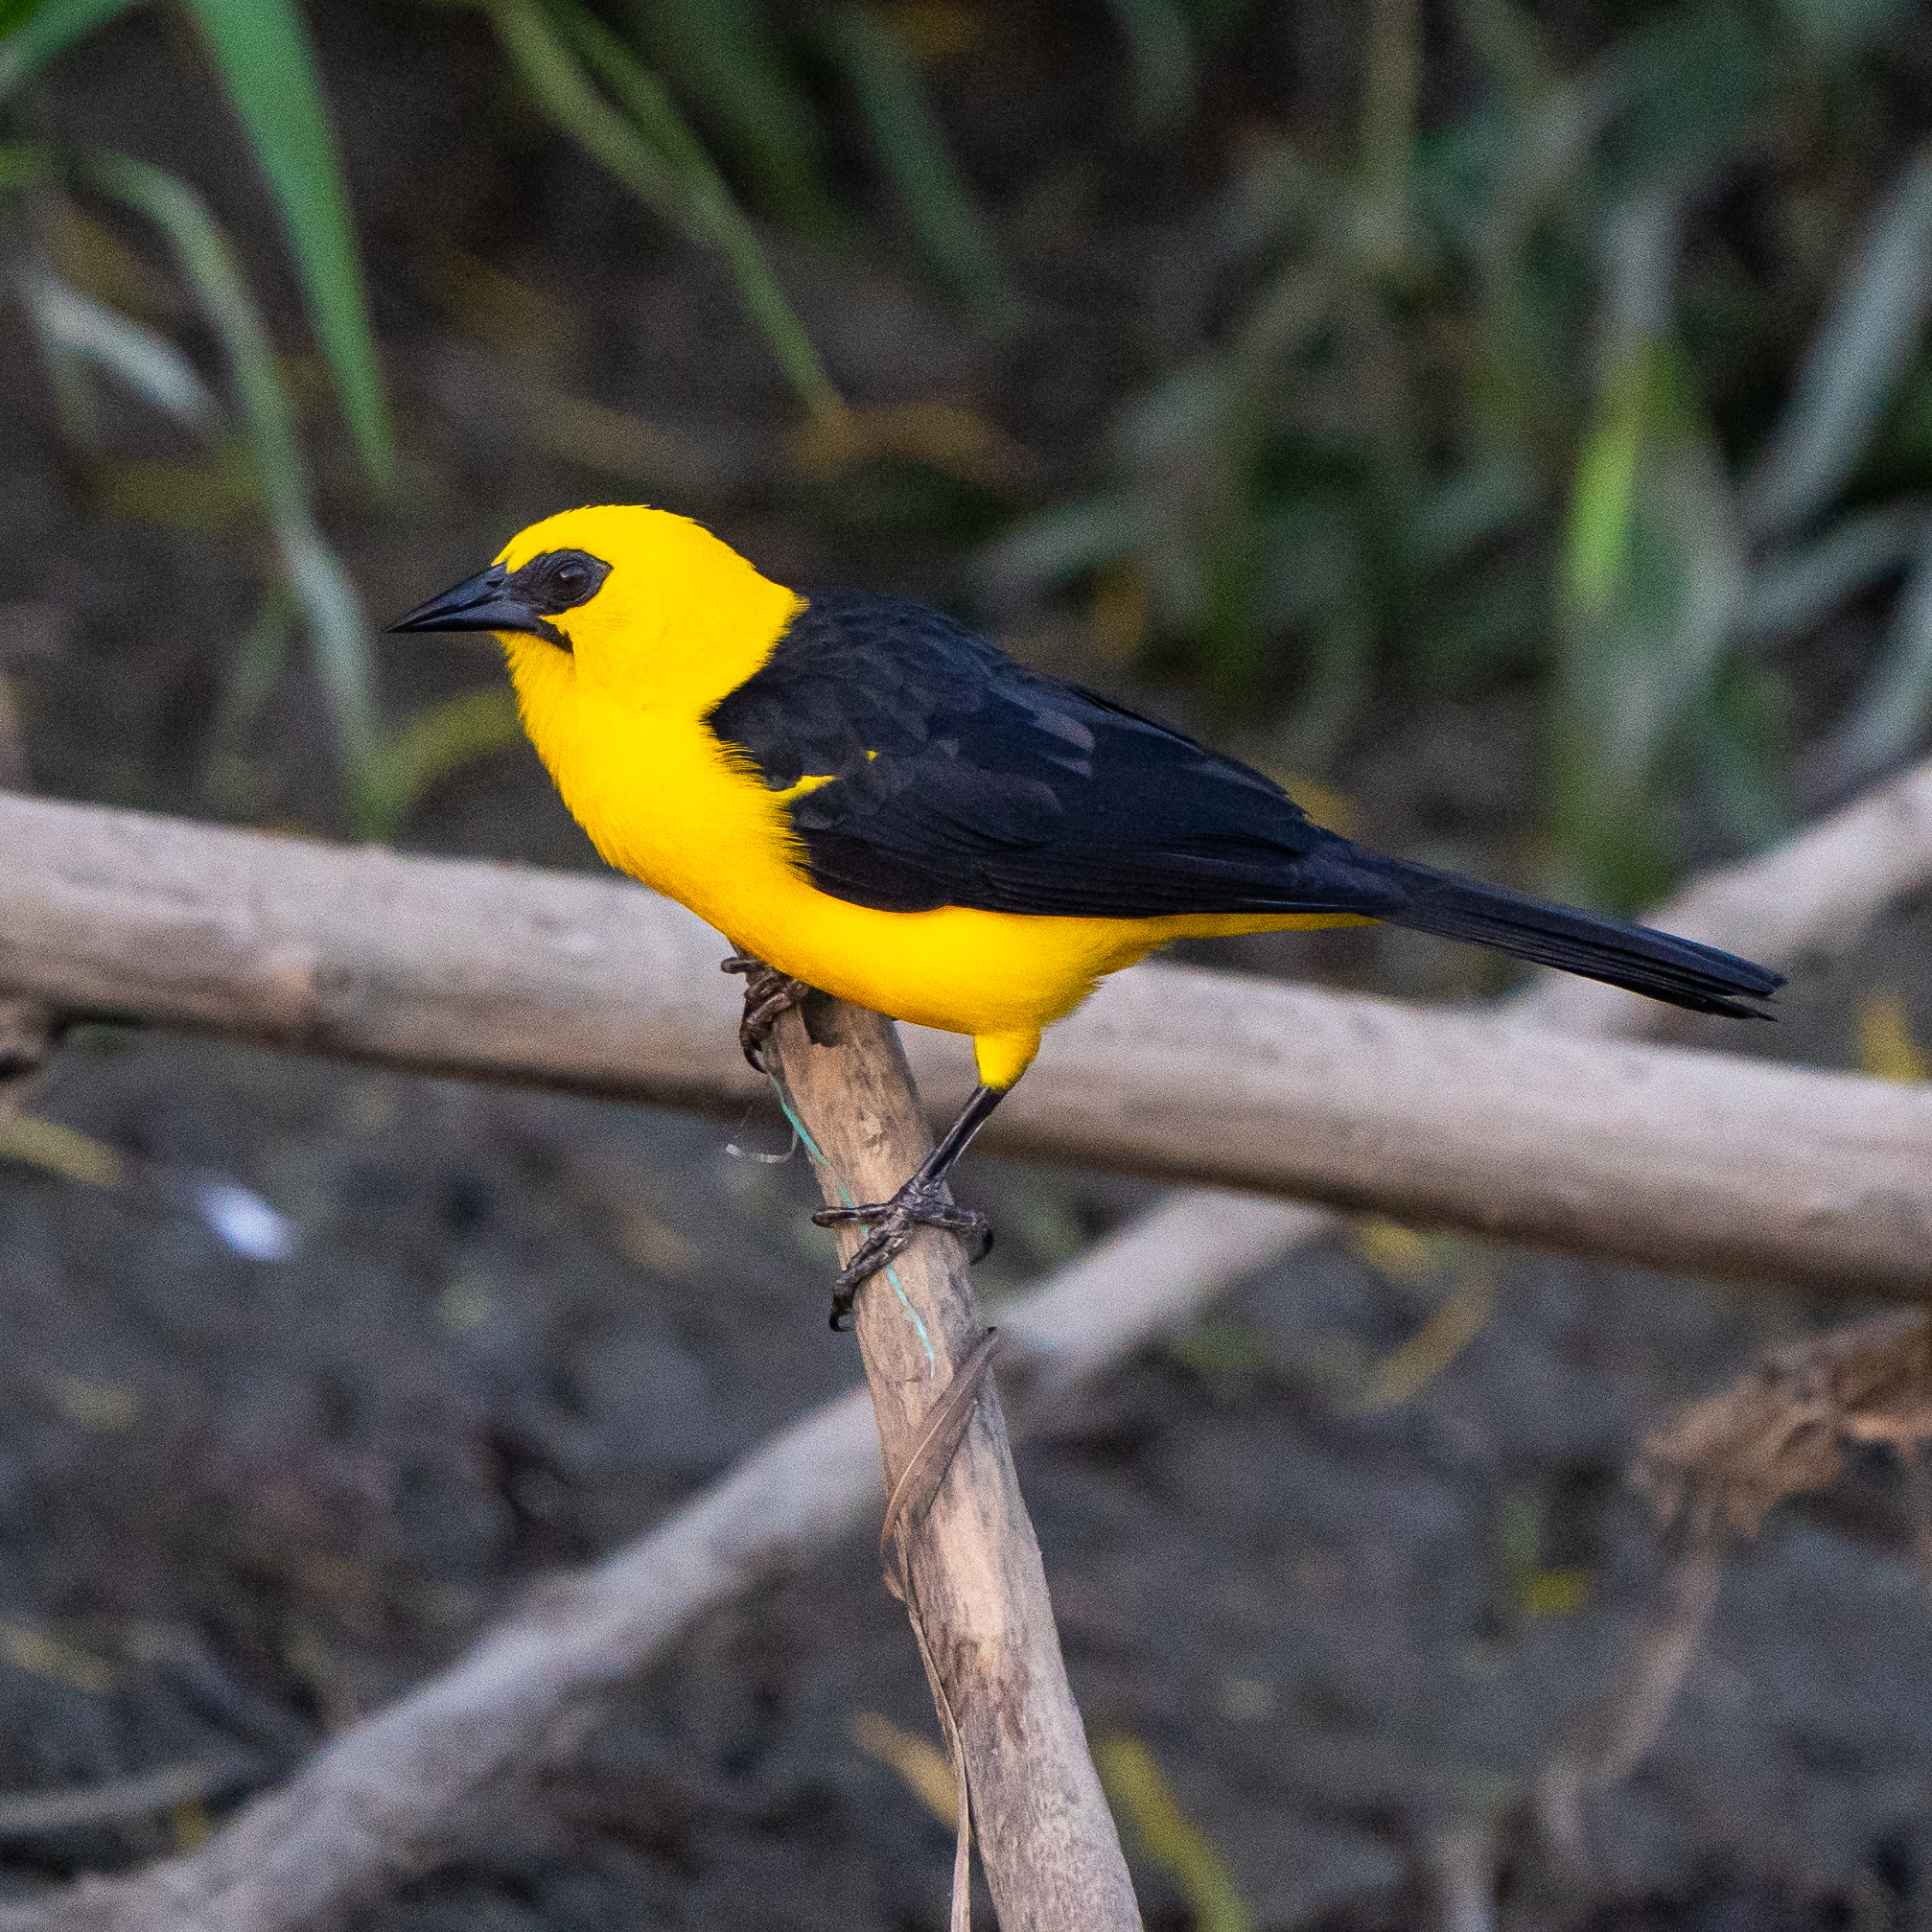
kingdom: Animalia
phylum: Chordata
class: Aves
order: Passeriformes
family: Icteridae
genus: Gymnomystax
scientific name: Gymnomystax mexicanus
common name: Oriole blackbird
